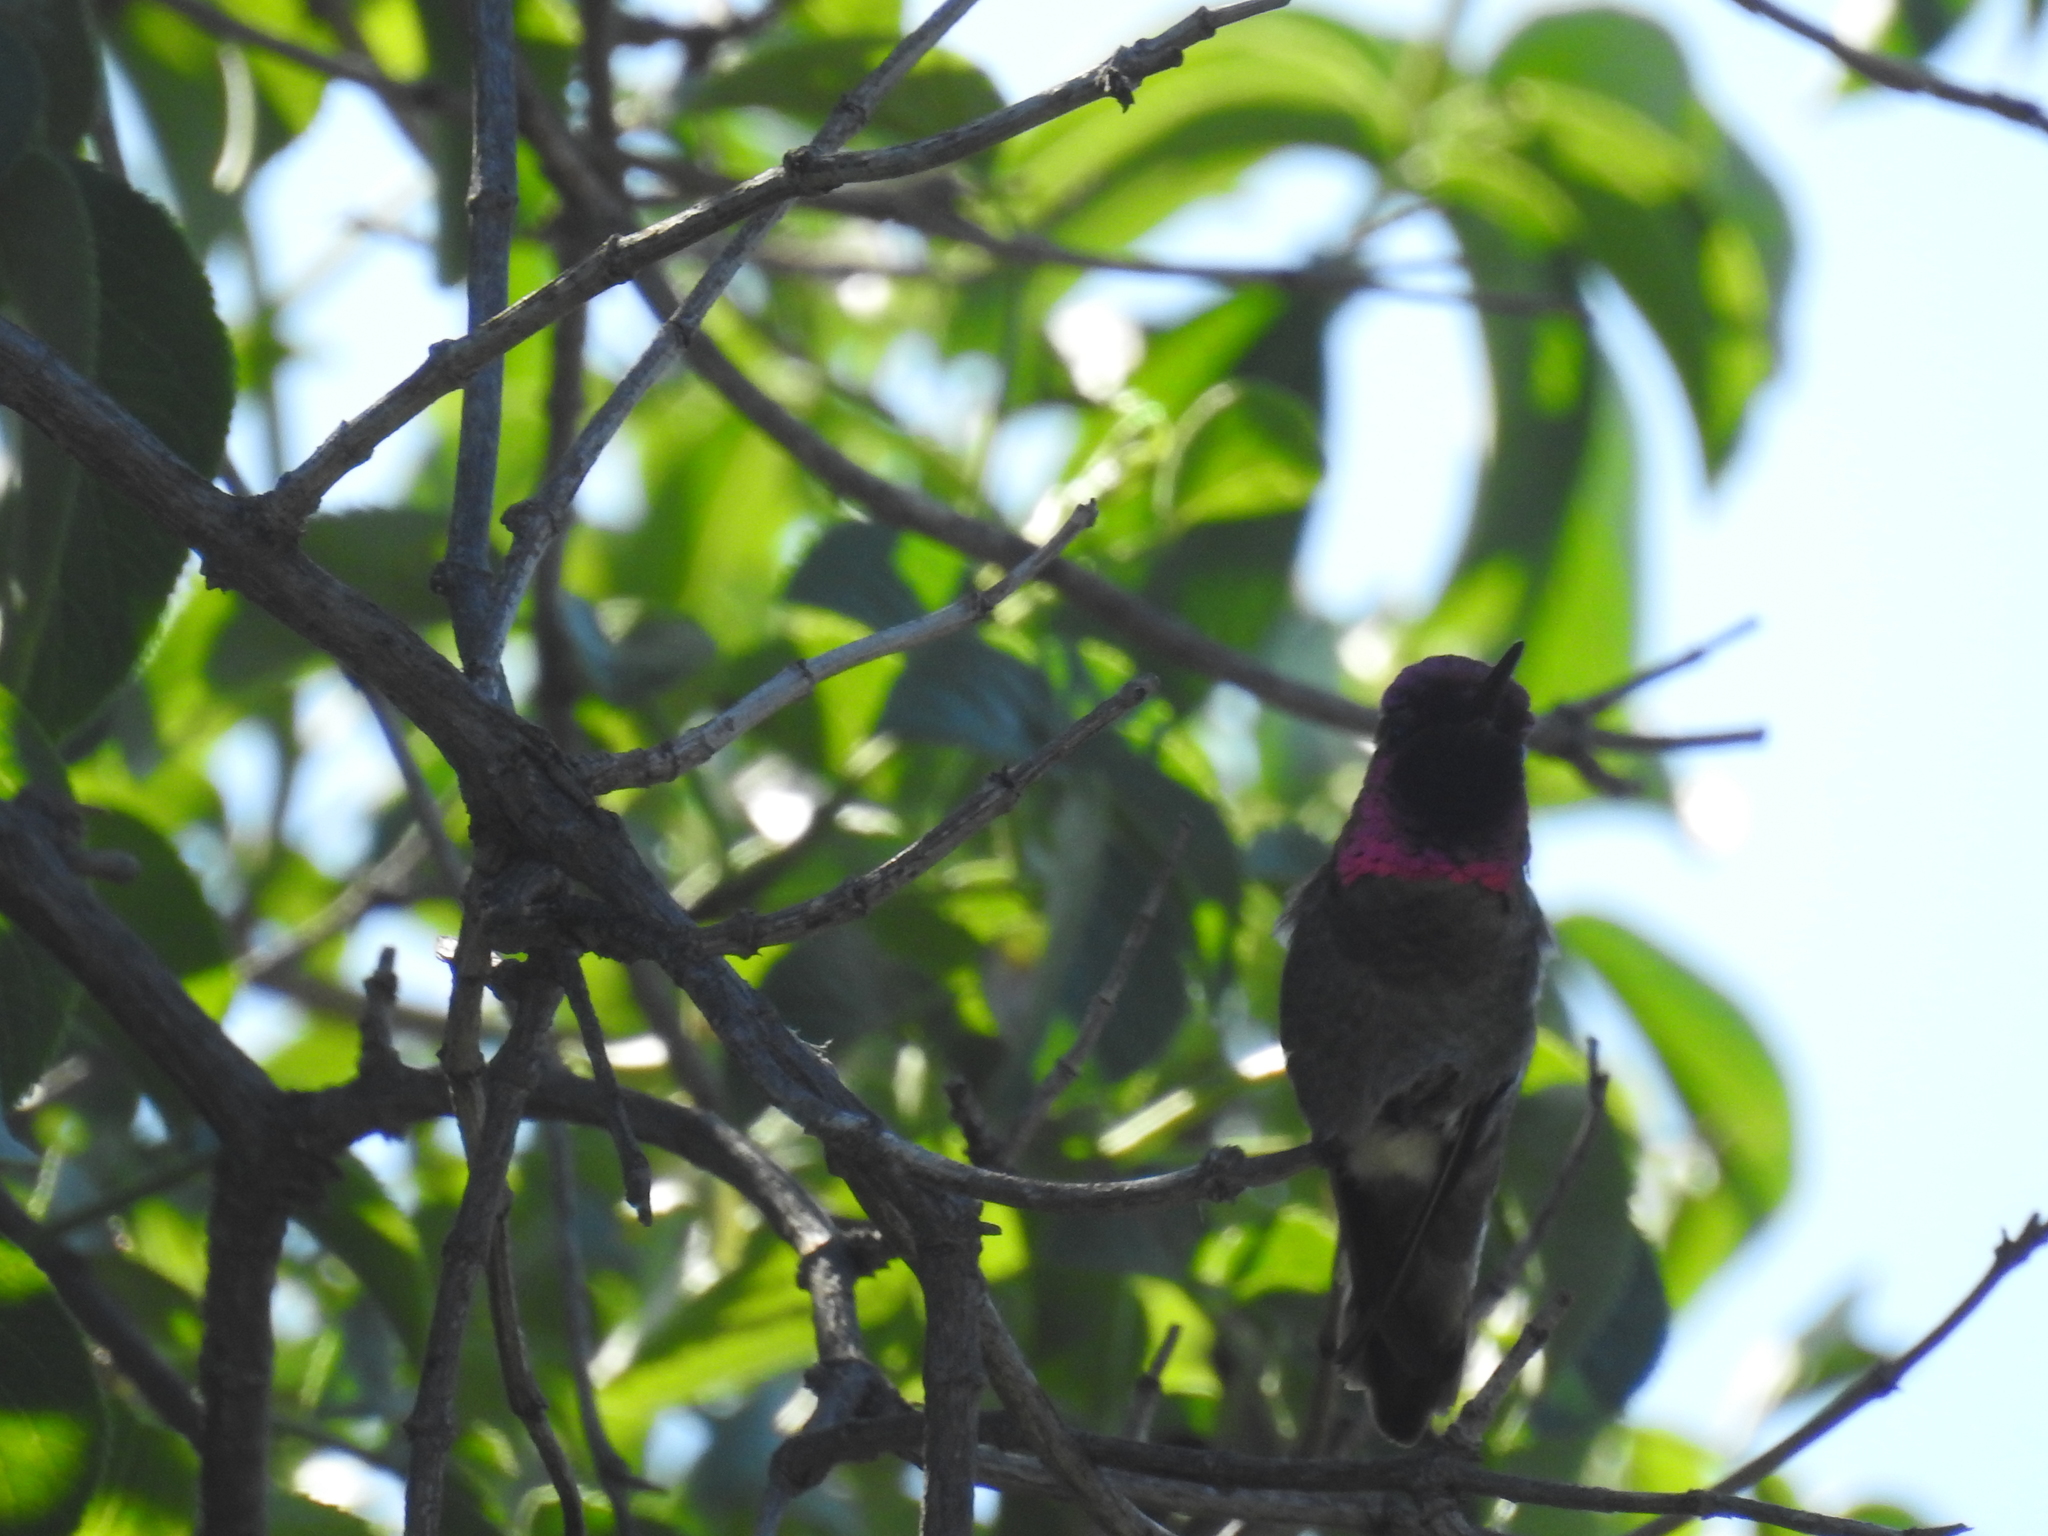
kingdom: Animalia
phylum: Chordata
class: Aves
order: Apodiformes
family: Trochilidae
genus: Calypte
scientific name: Calypte anna
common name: Anna's hummingbird
